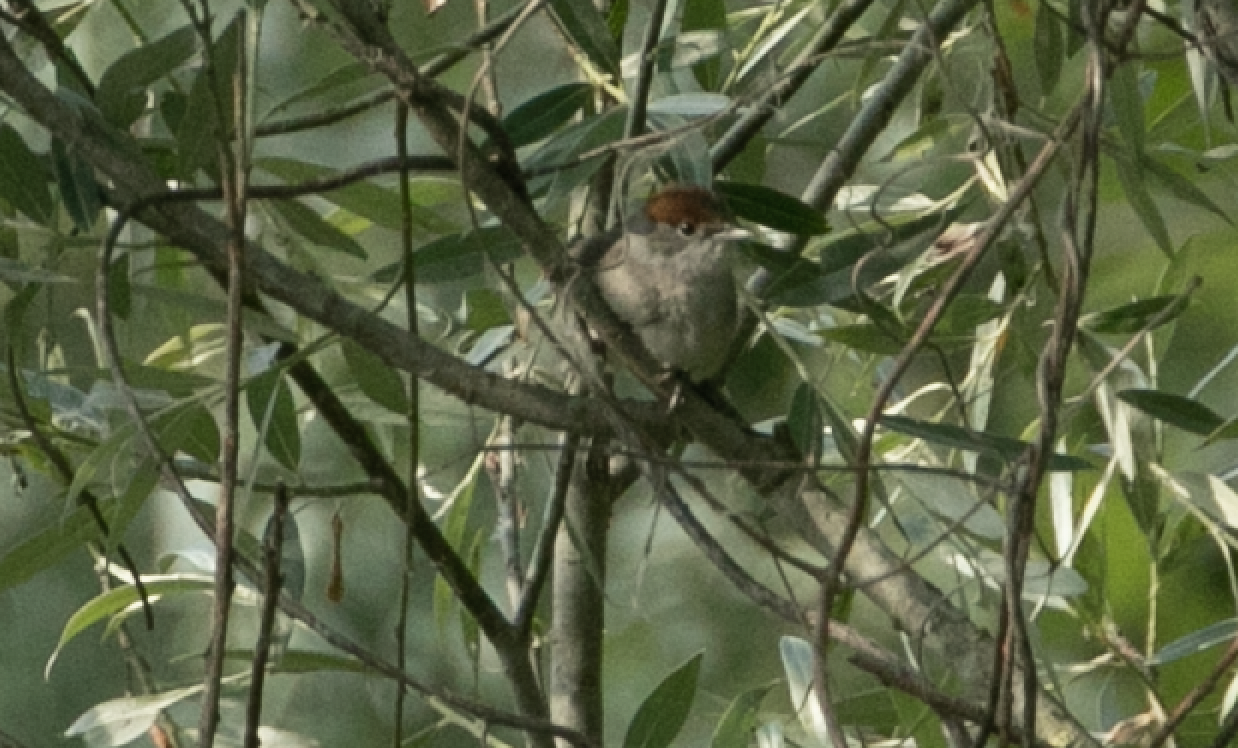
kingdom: Animalia
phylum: Chordata
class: Aves
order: Passeriformes
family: Sylviidae
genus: Sylvia
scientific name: Sylvia atricapilla
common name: Eurasian blackcap
